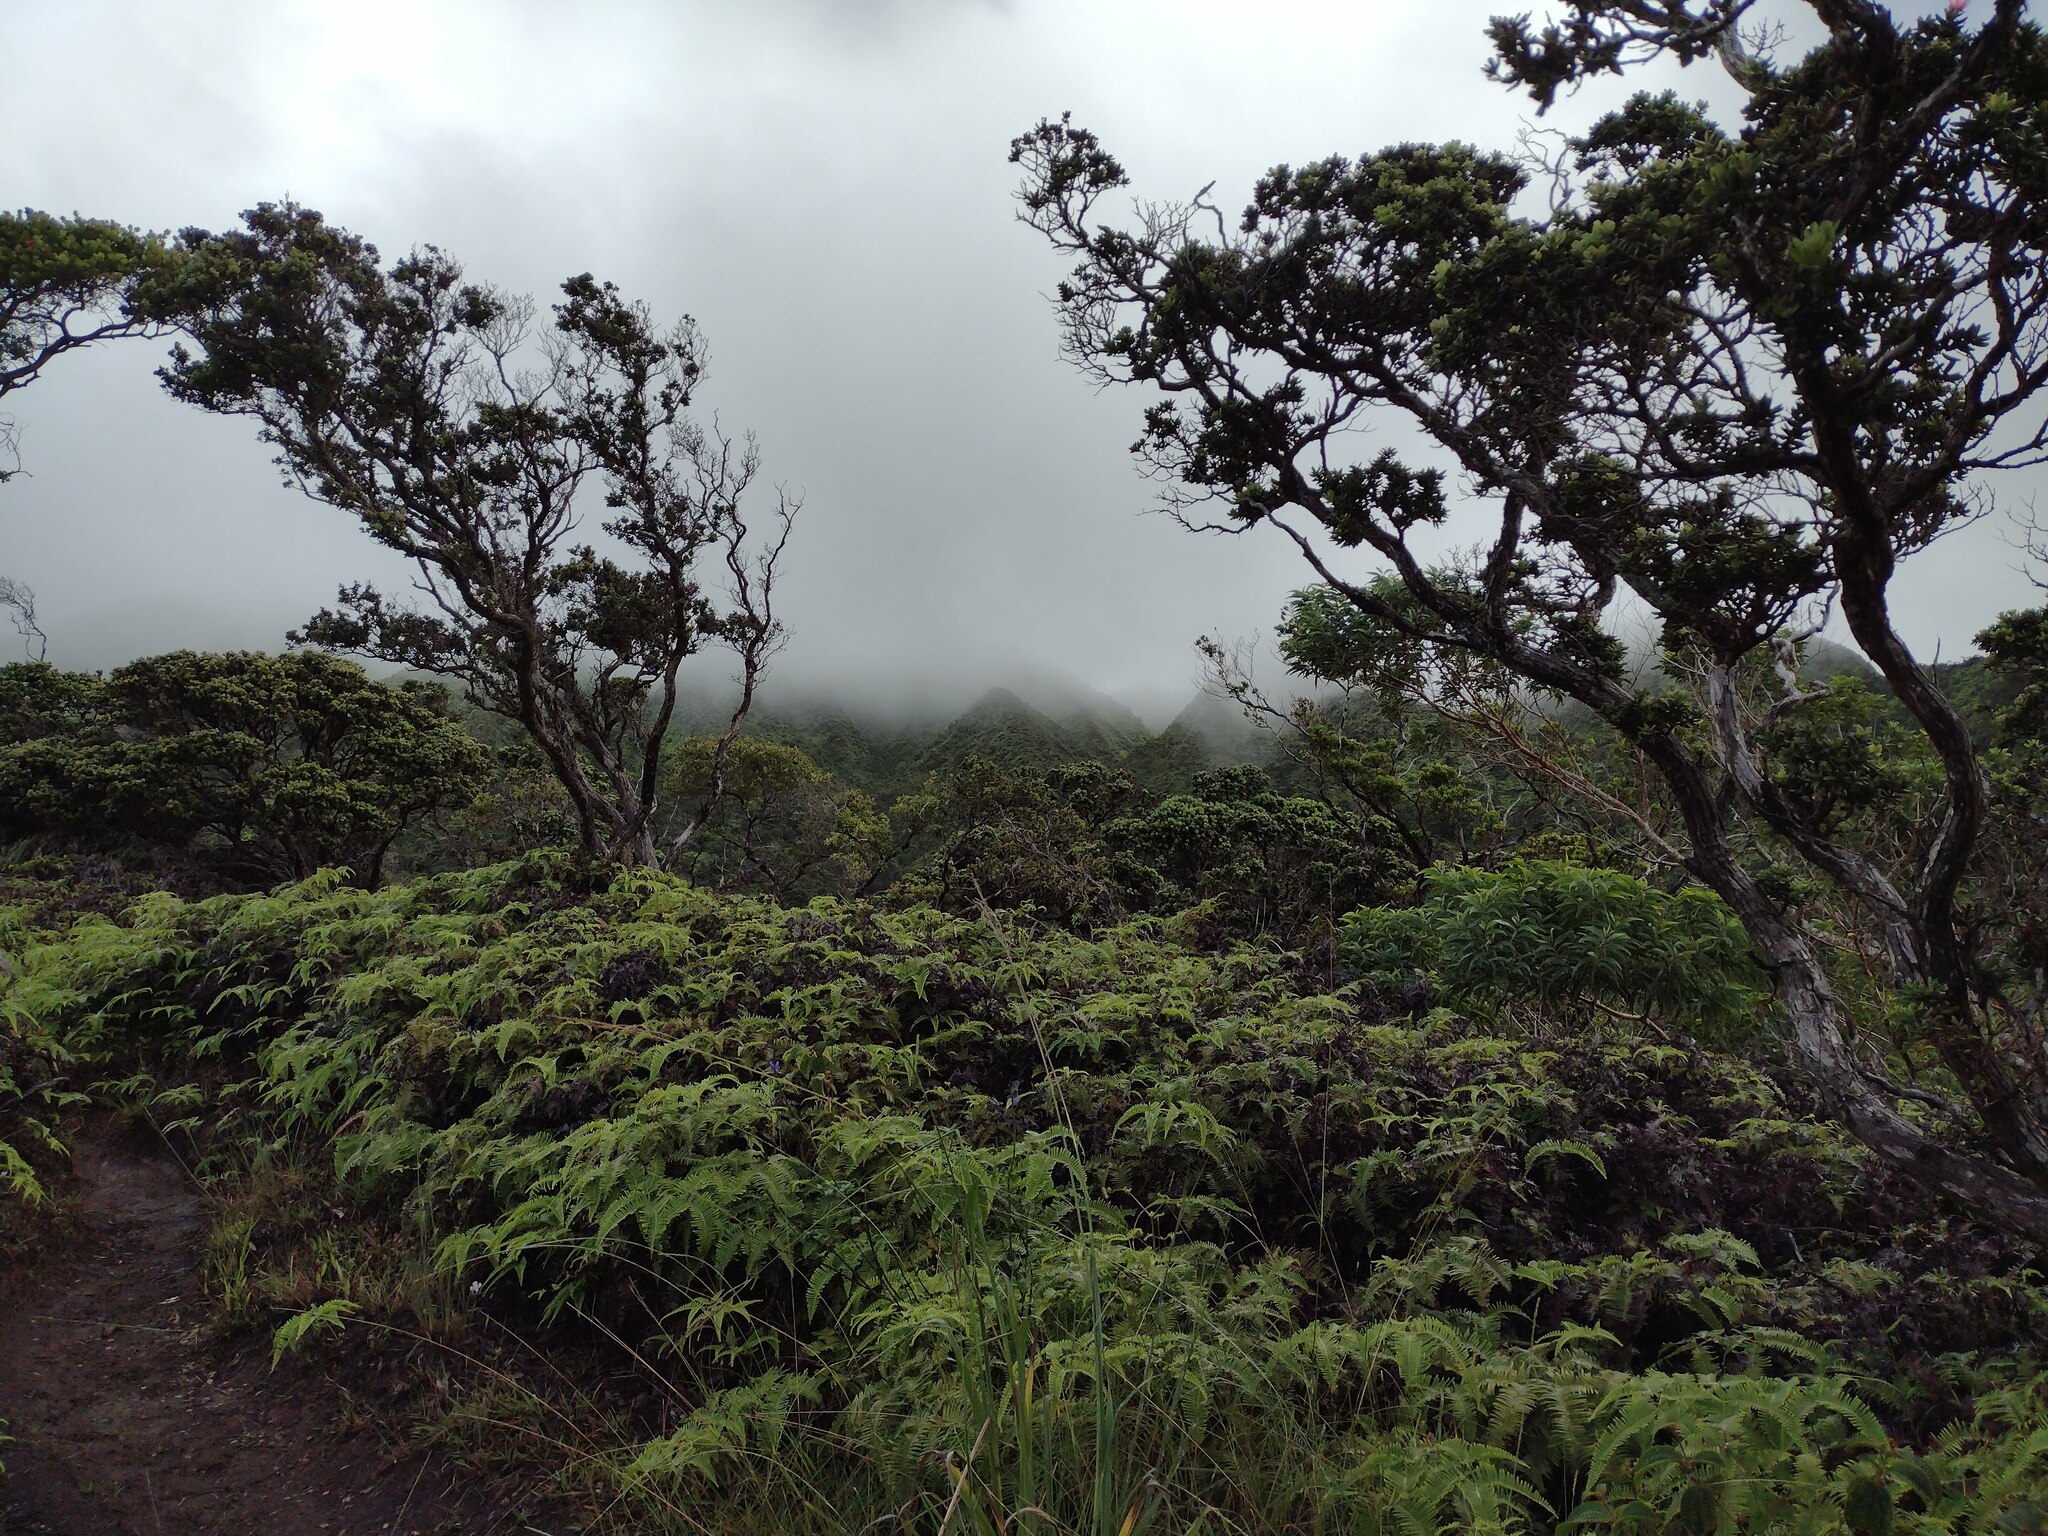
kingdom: Plantae
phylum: Tracheophyta
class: Magnoliopsida
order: Myrtales
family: Myrtaceae
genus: Metrosideros
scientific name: Metrosideros polymorpha
